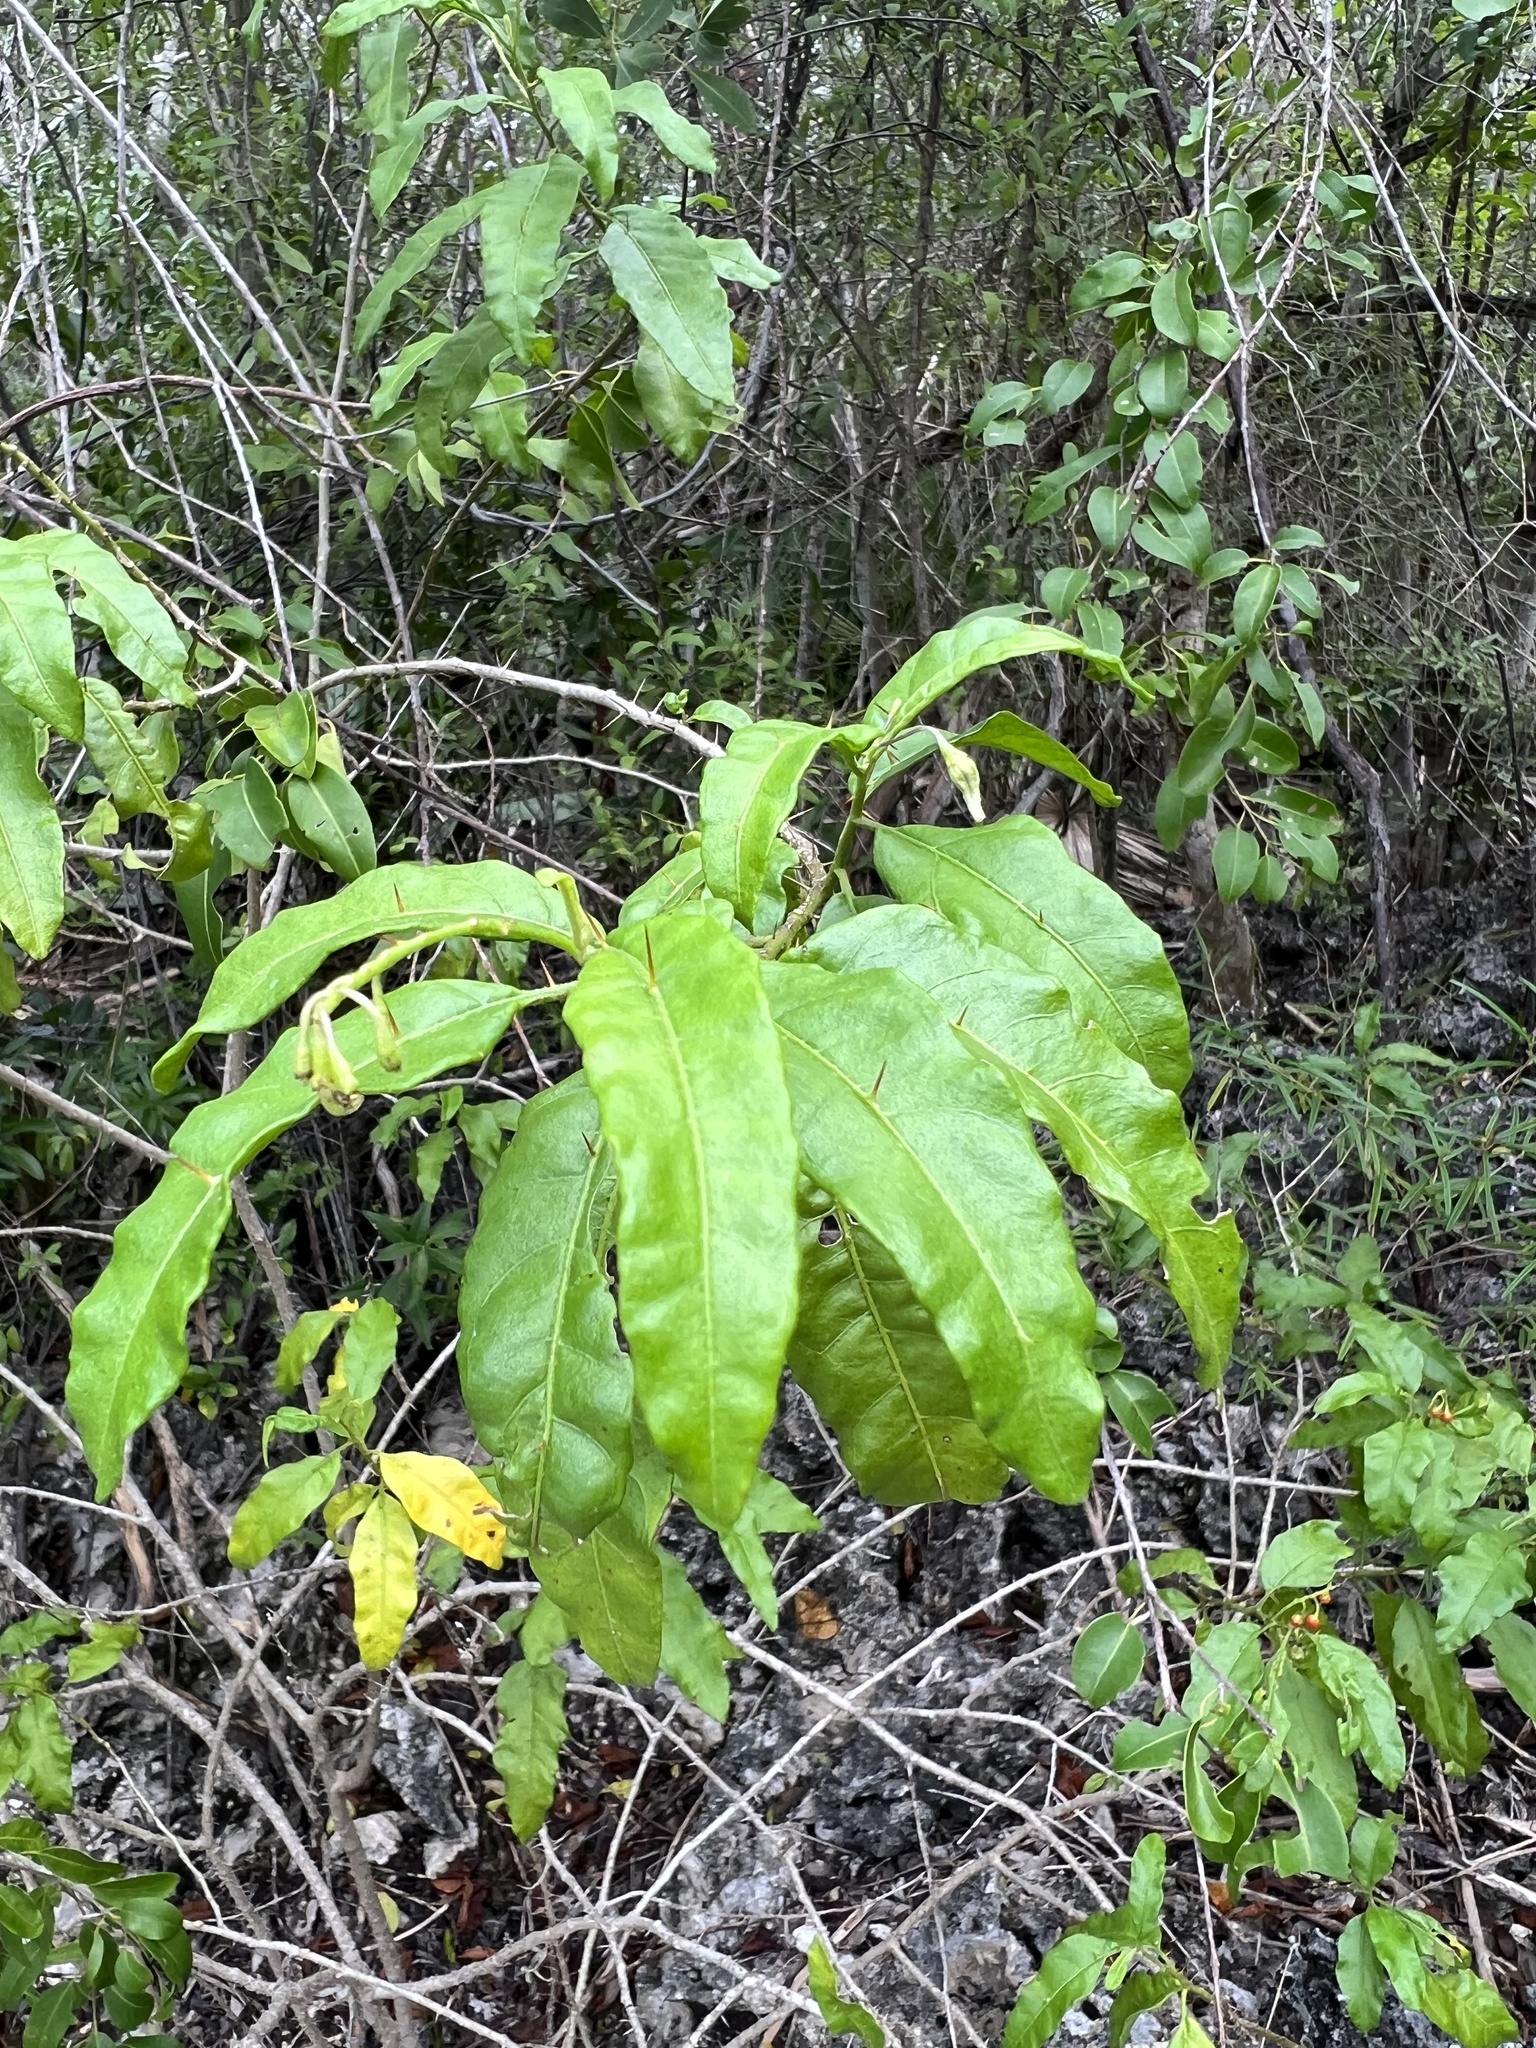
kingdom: Plantae
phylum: Tracheophyta
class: Magnoliopsida
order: Solanales
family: Solanaceae
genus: Solanum
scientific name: Solanum bahamense
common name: Canker-berry
